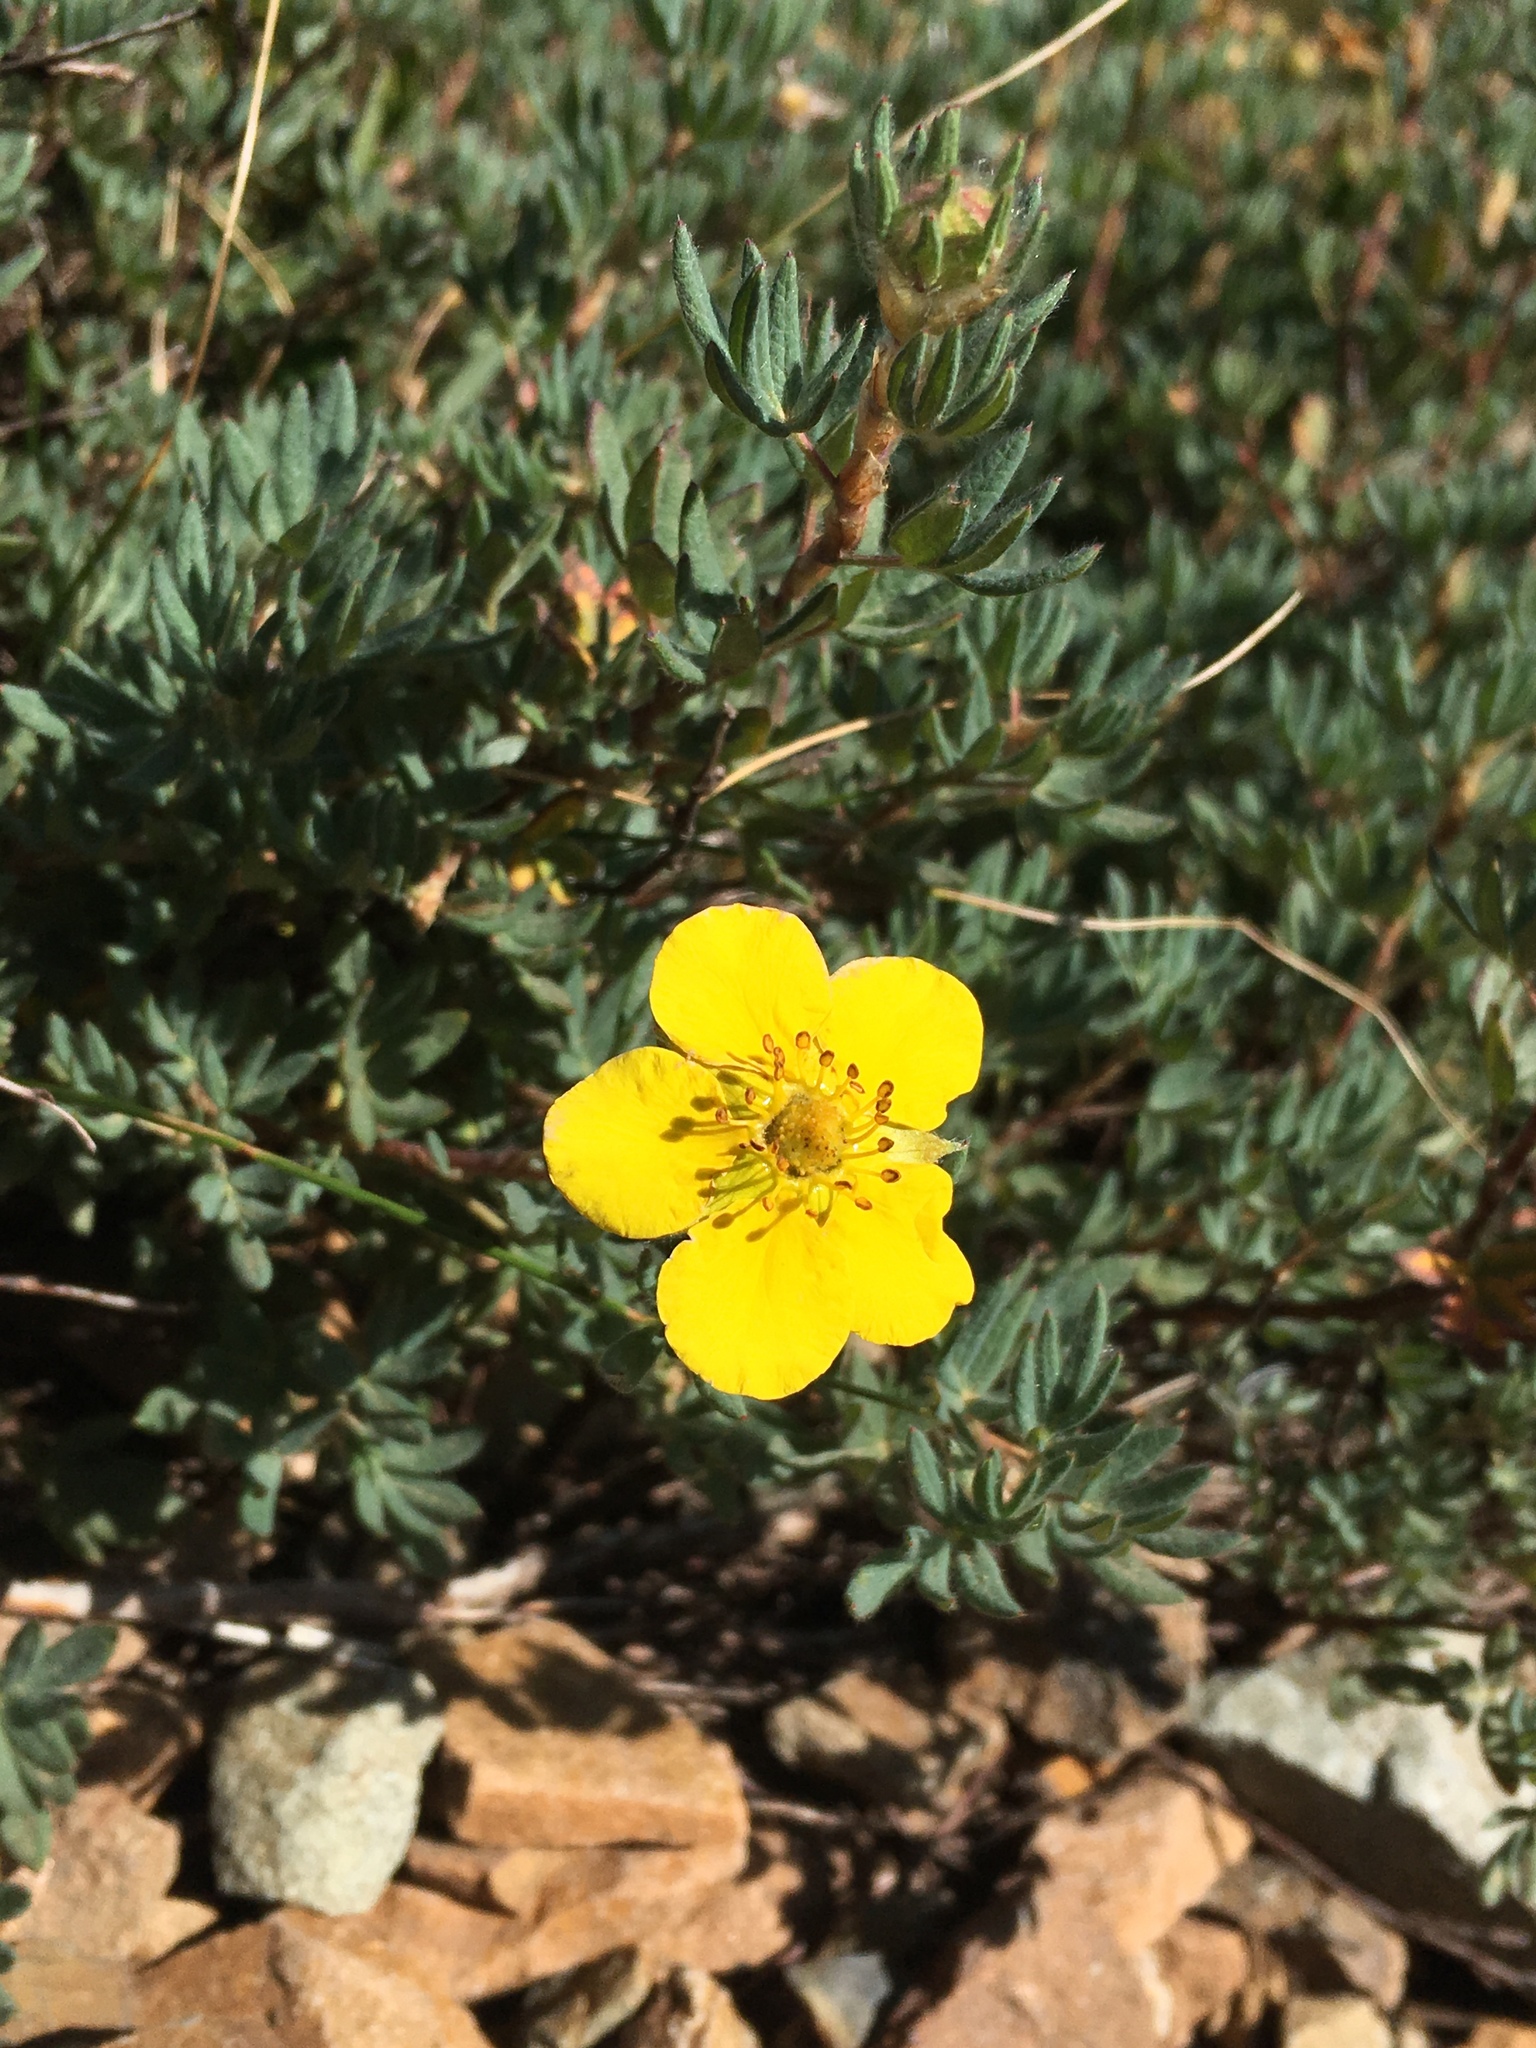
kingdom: Plantae
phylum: Tracheophyta
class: Magnoliopsida
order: Rosales
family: Rosaceae
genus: Dasiphora
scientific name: Dasiphora fruticosa
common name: Shrubby cinquefoil
